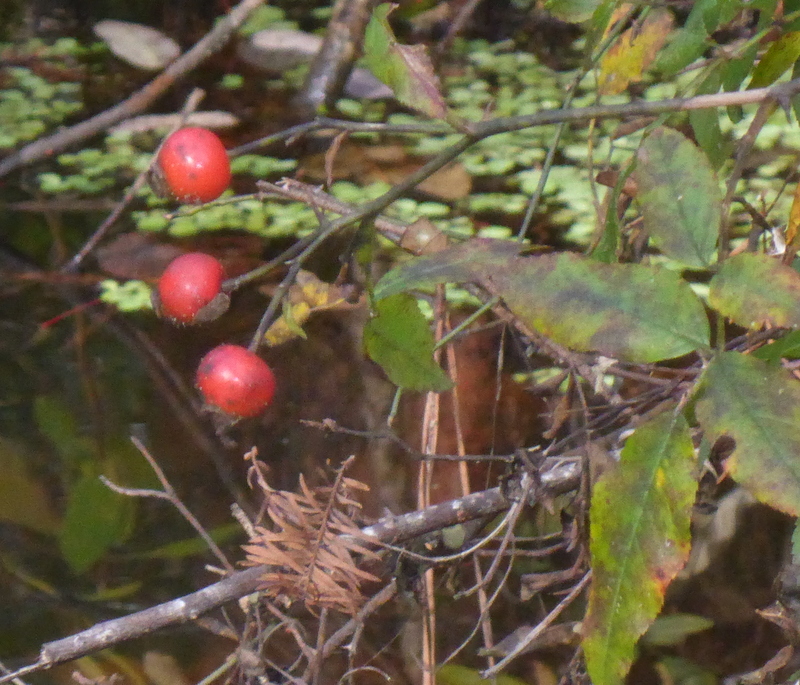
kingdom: Plantae
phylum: Tracheophyta
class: Magnoliopsida
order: Rosales
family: Rosaceae
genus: Rosa
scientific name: Rosa palustris
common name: Swamp rose
